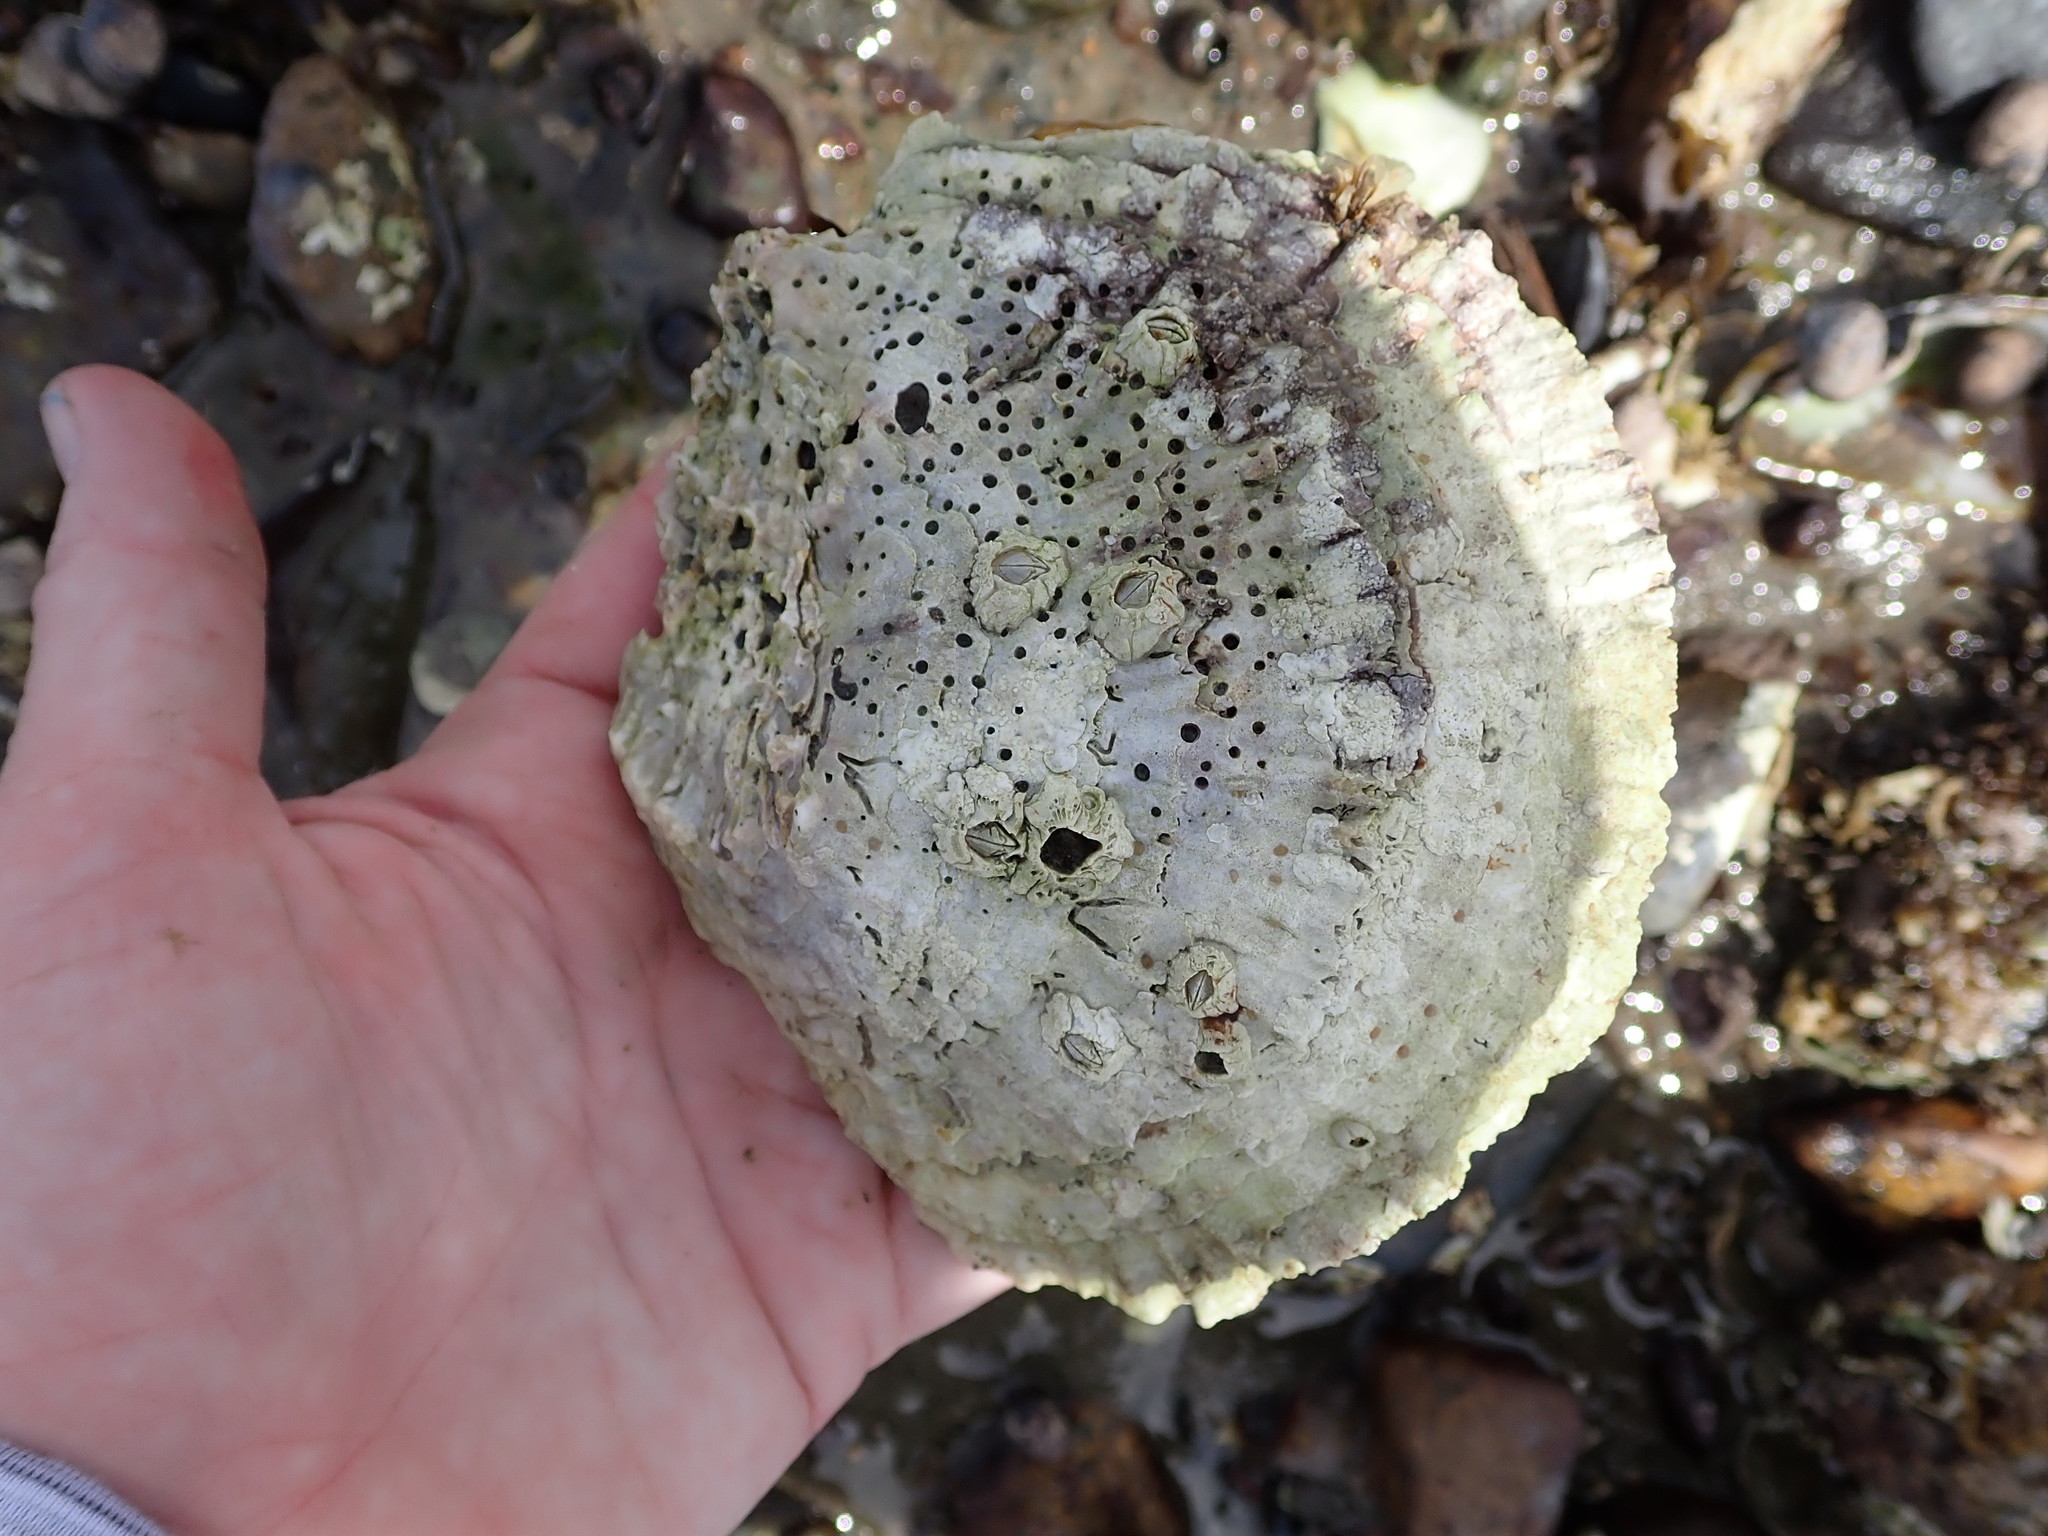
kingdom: Animalia
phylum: Mollusca
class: Bivalvia
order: Ostreida
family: Ostreidae
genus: Ostrea
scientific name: Ostrea edulis
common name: Flat oyster
